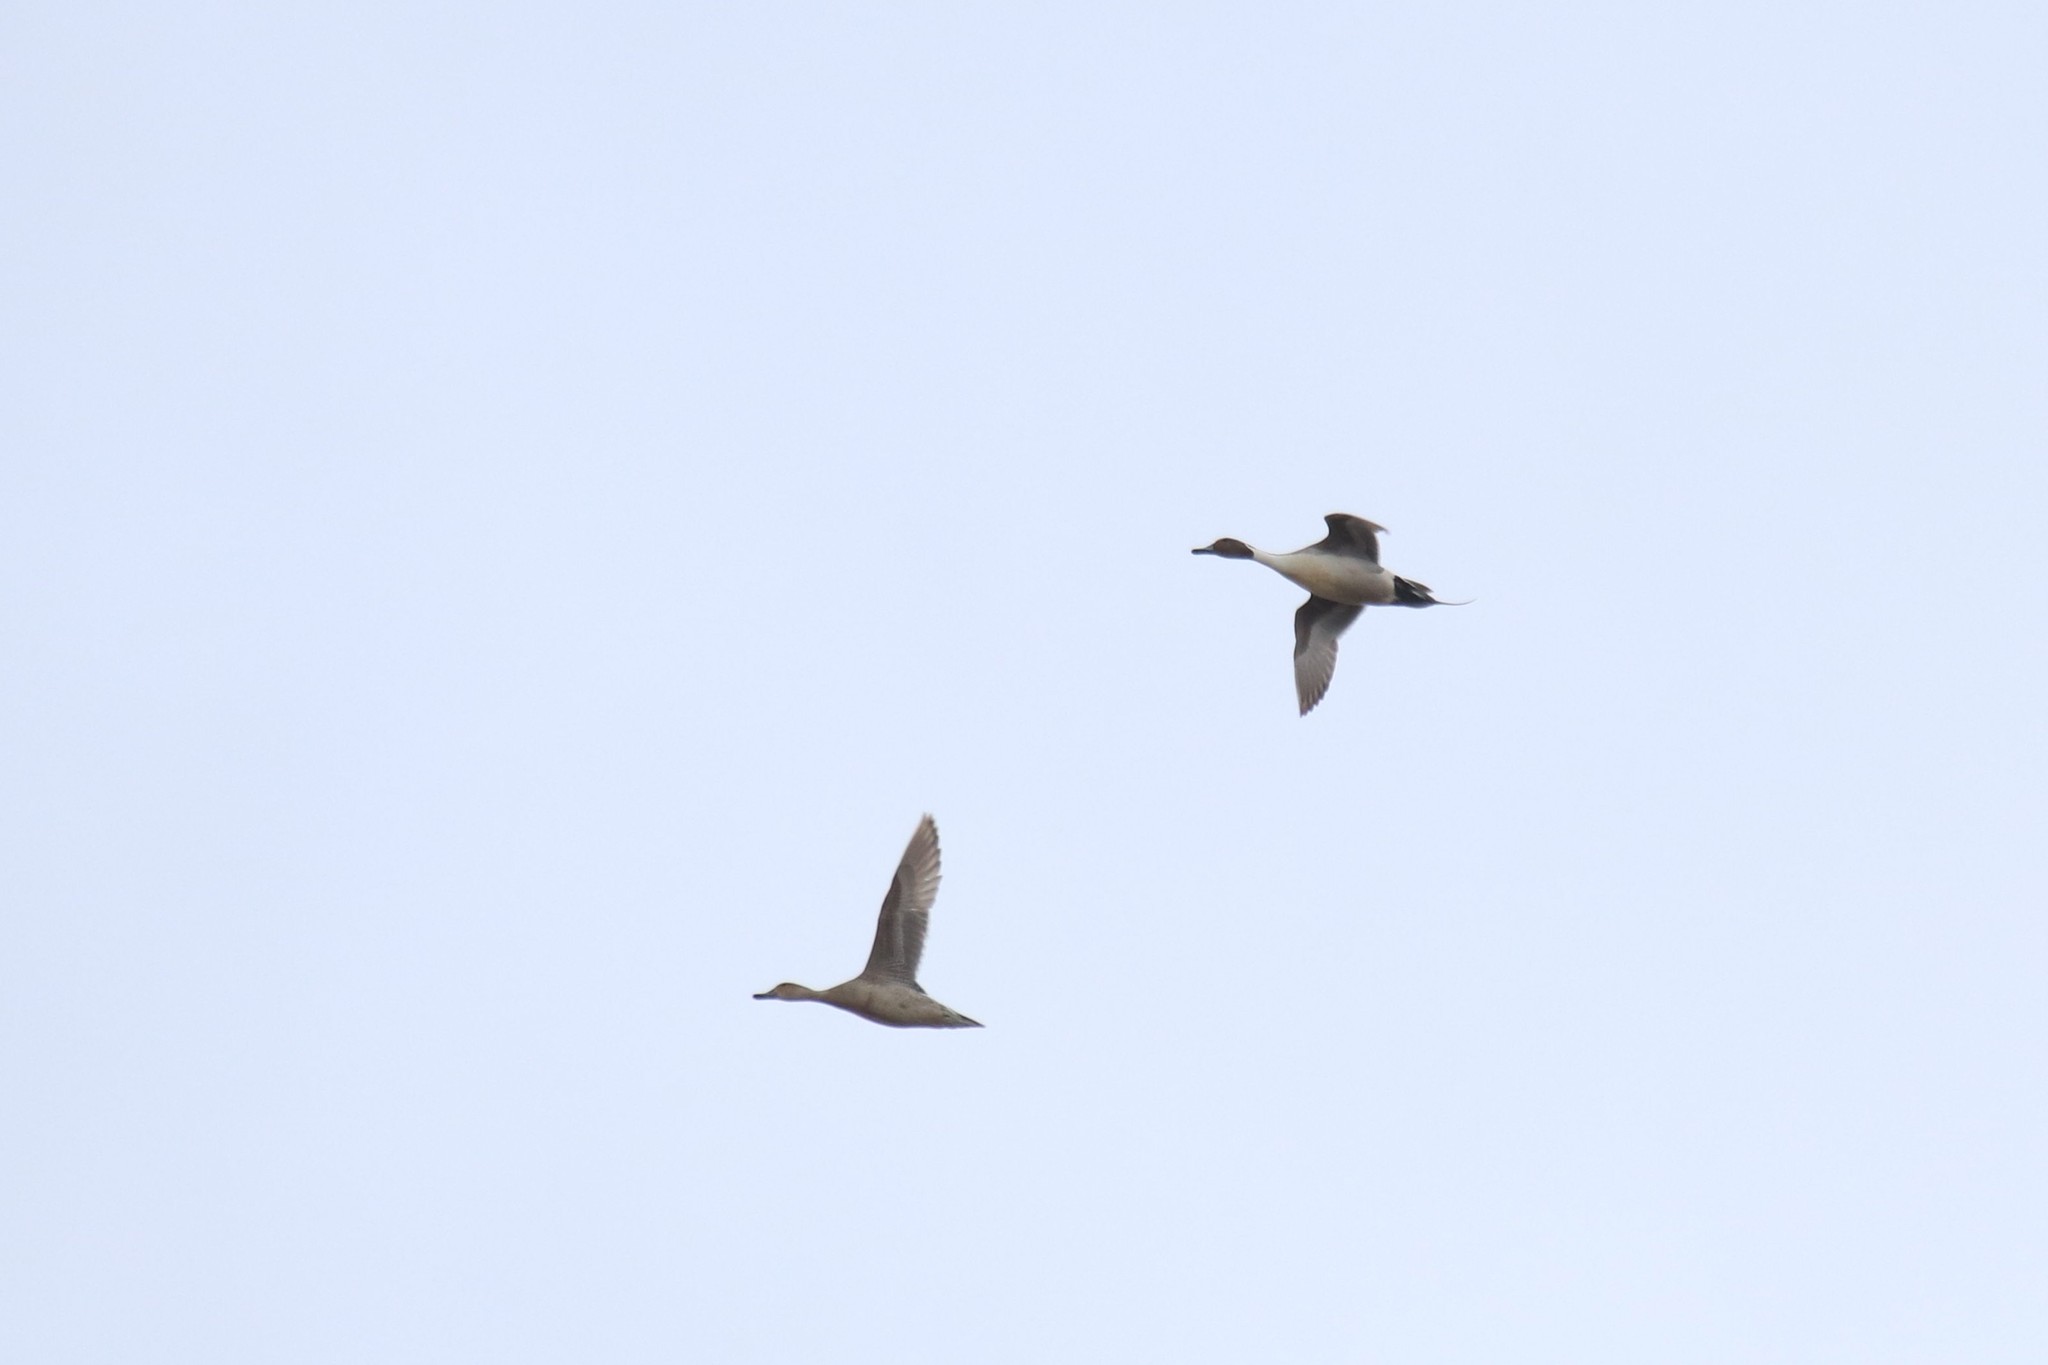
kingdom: Animalia
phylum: Chordata
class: Aves
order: Anseriformes
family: Anatidae
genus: Anas
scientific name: Anas acuta
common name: Northern pintail
